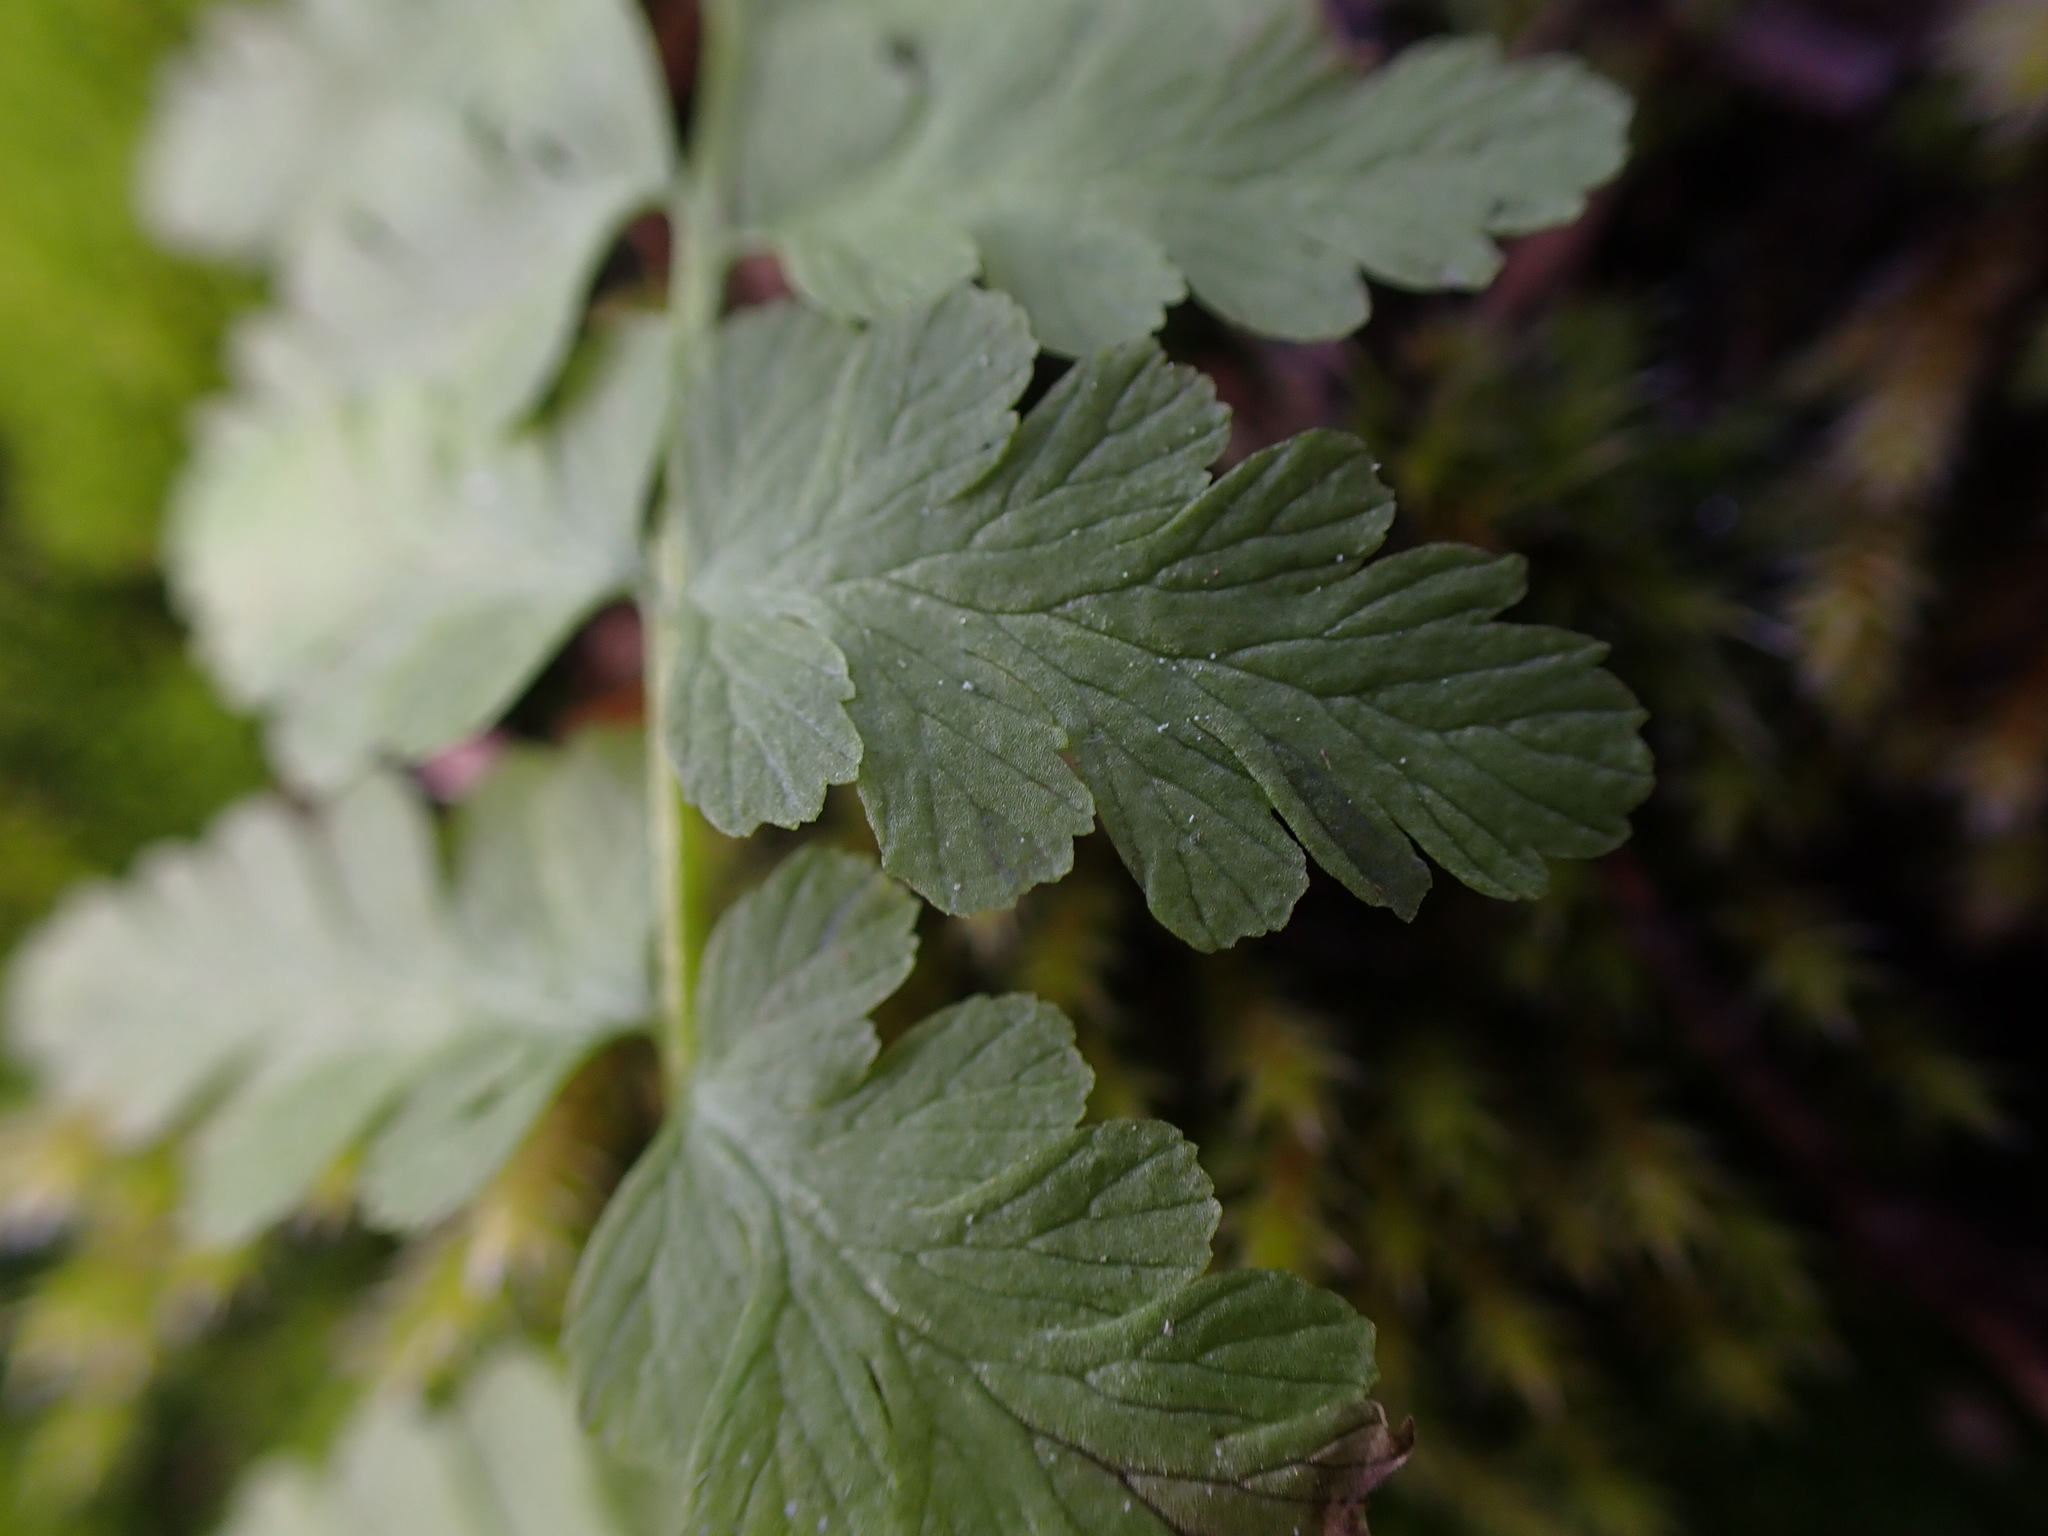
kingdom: Plantae
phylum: Tracheophyta
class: Polypodiopsida
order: Polypodiales
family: Cystopteridaceae
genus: Cystopteris
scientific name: Cystopteris fragilis
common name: Brittle bladder fern
